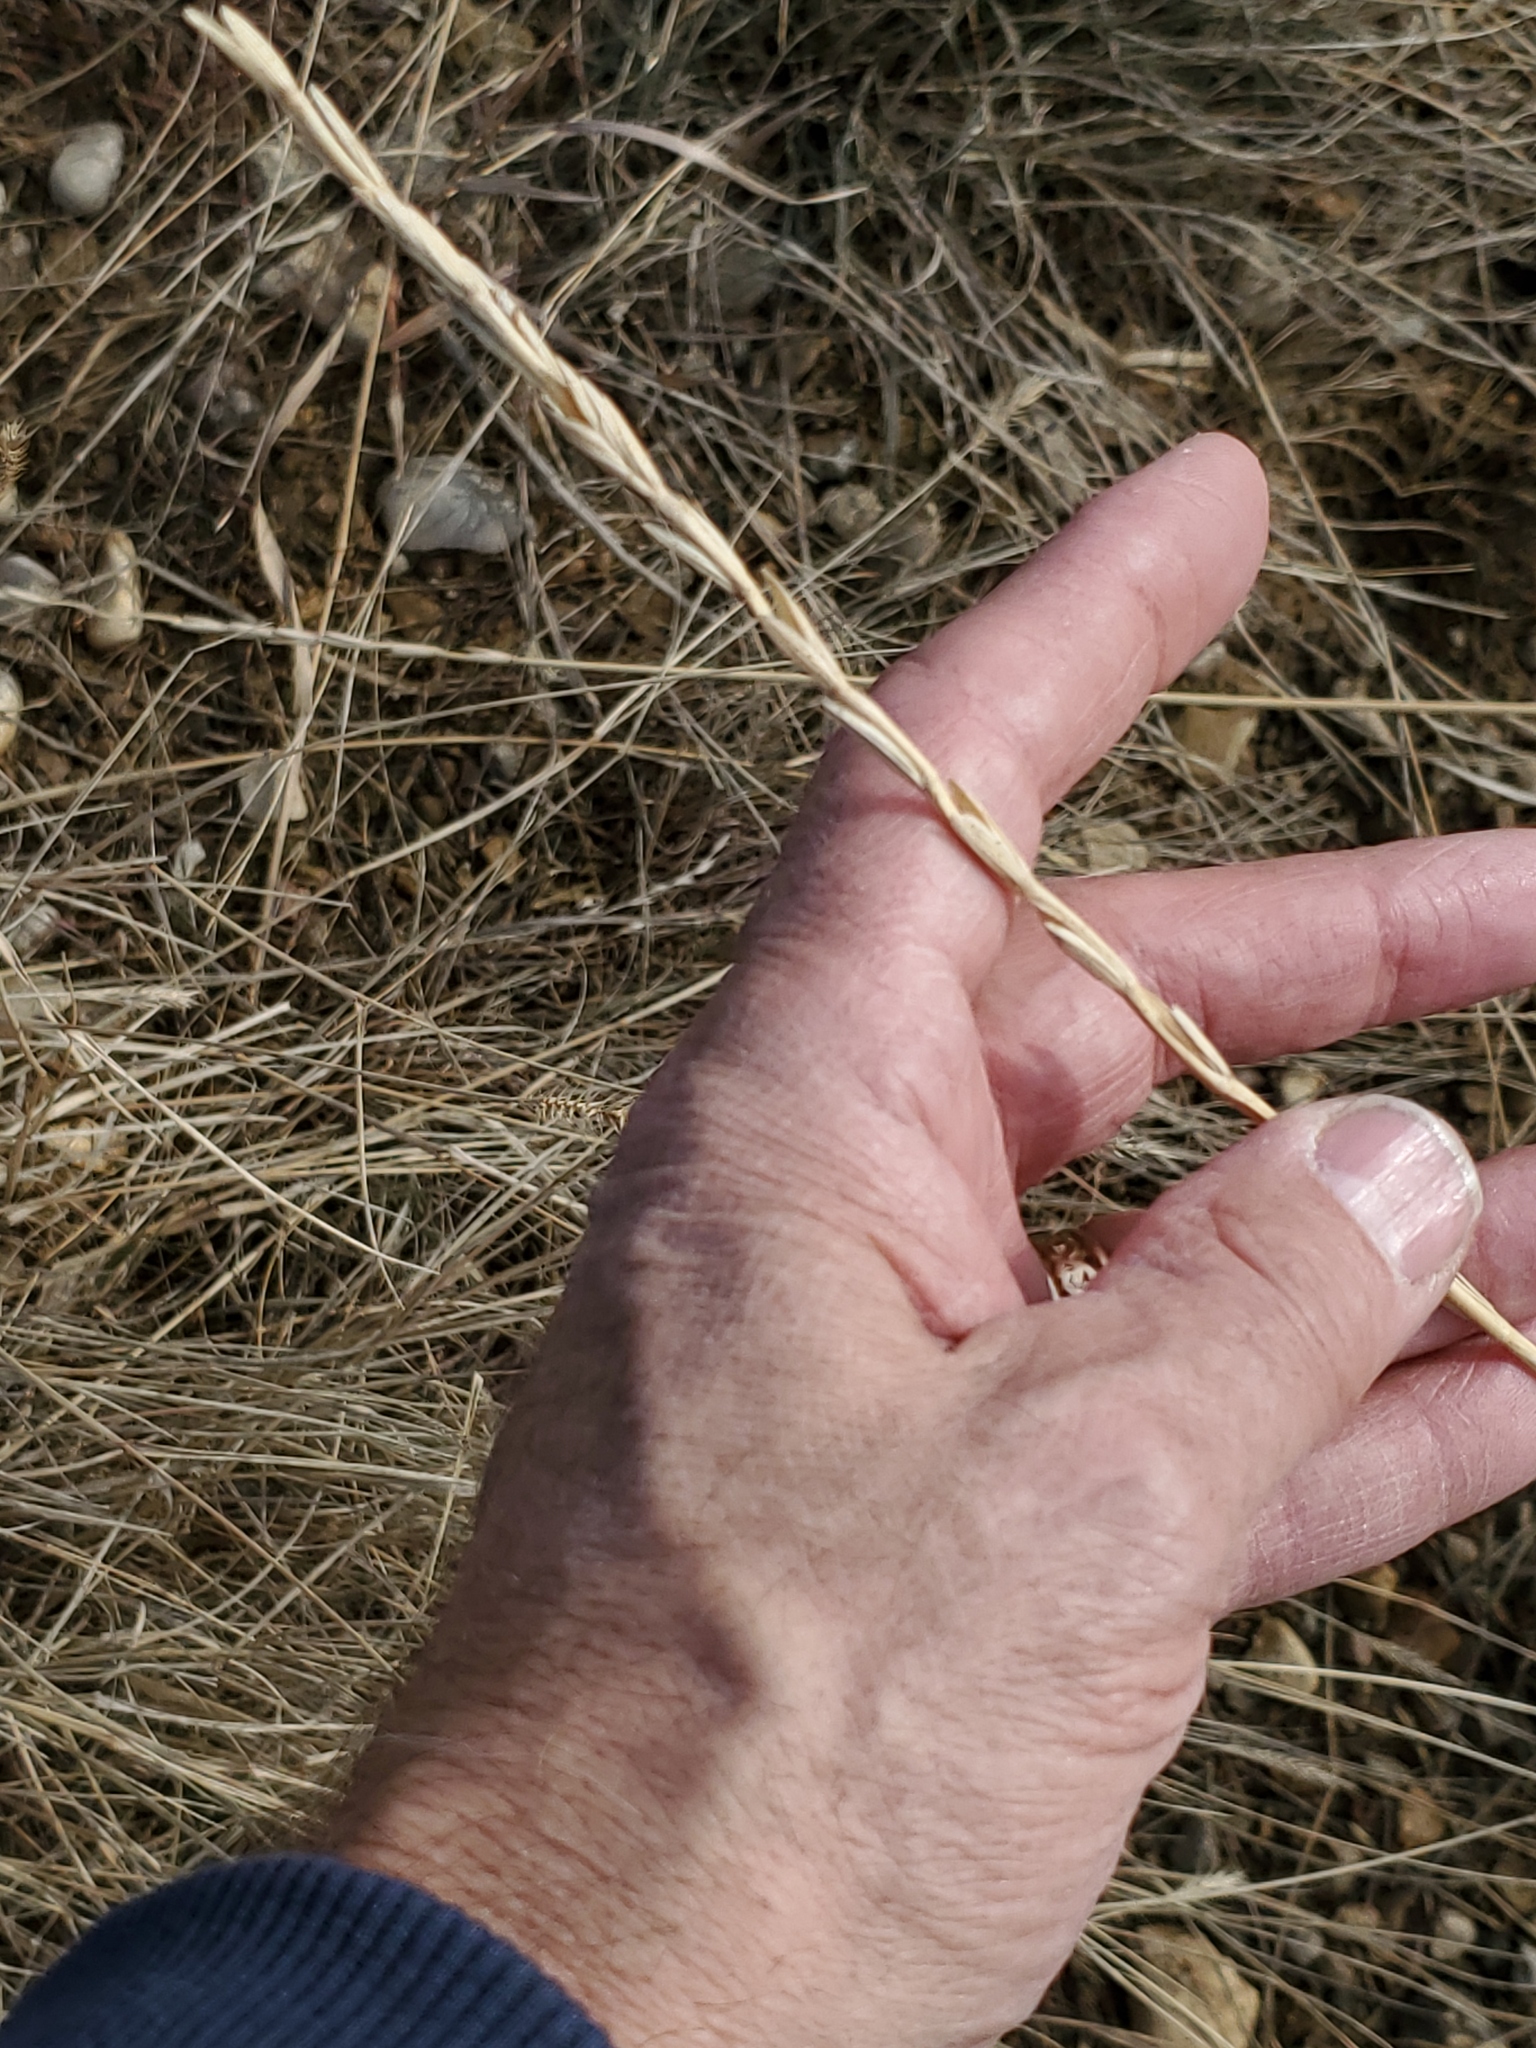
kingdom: Plantae
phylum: Tracheophyta
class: Liliopsida
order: Poales
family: Poaceae
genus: Thinopyrum
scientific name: Thinopyrum intermedium
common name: Intermediate wheatgrass
